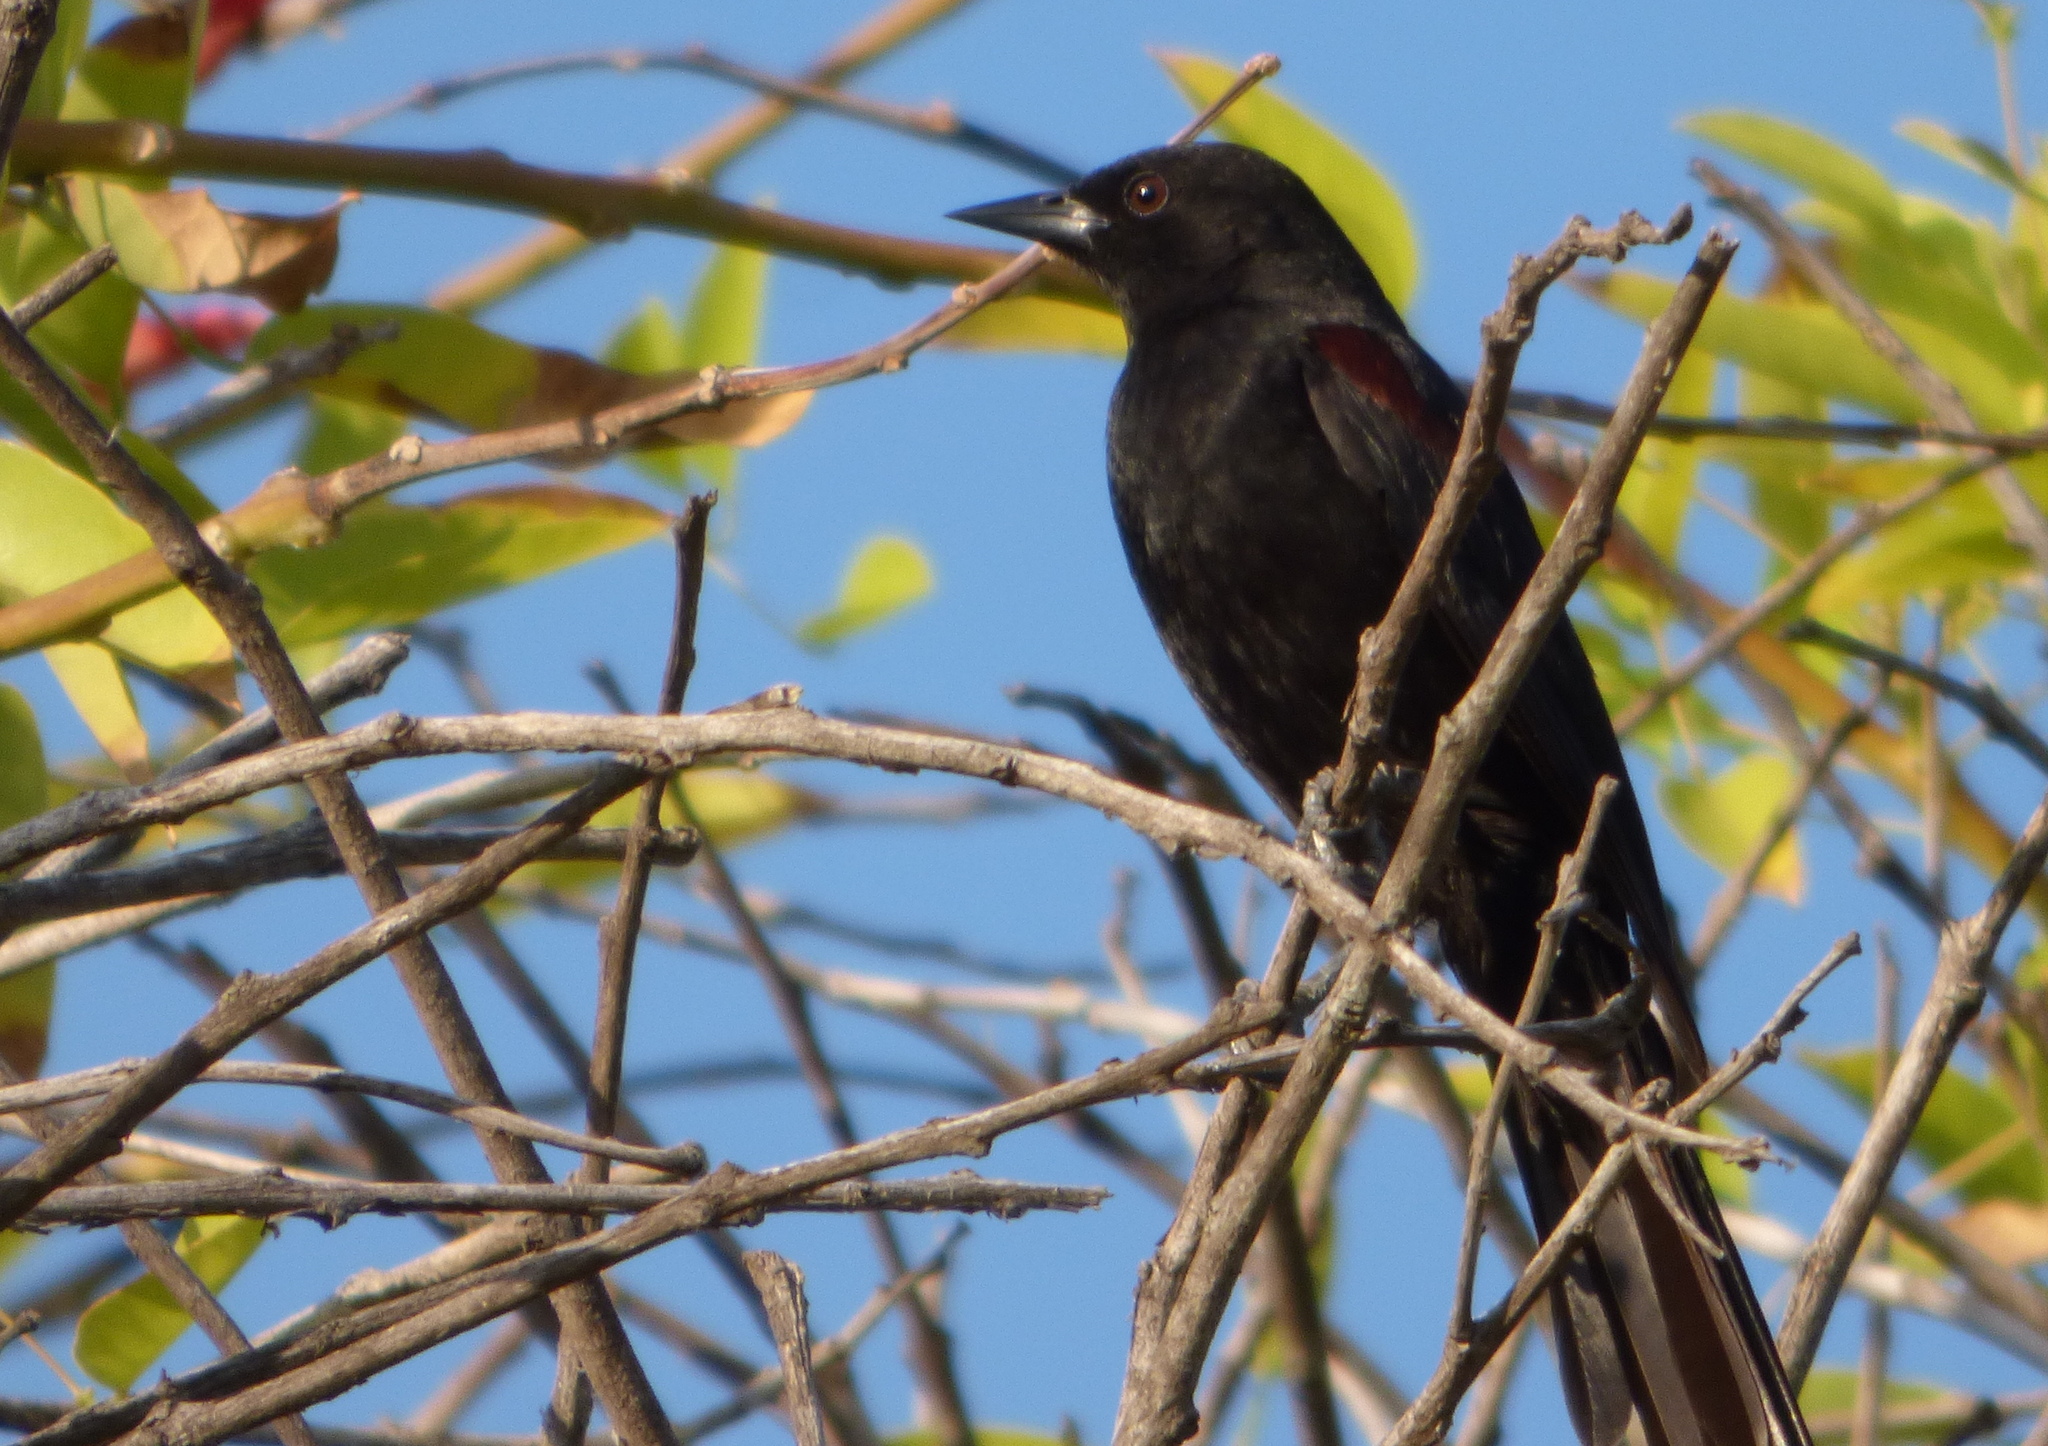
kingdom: Animalia
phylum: Chordata
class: Aves
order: Passeriformes
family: Icteridae
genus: Icterus
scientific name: Icterus cayanensis
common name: Epaulet oriole
